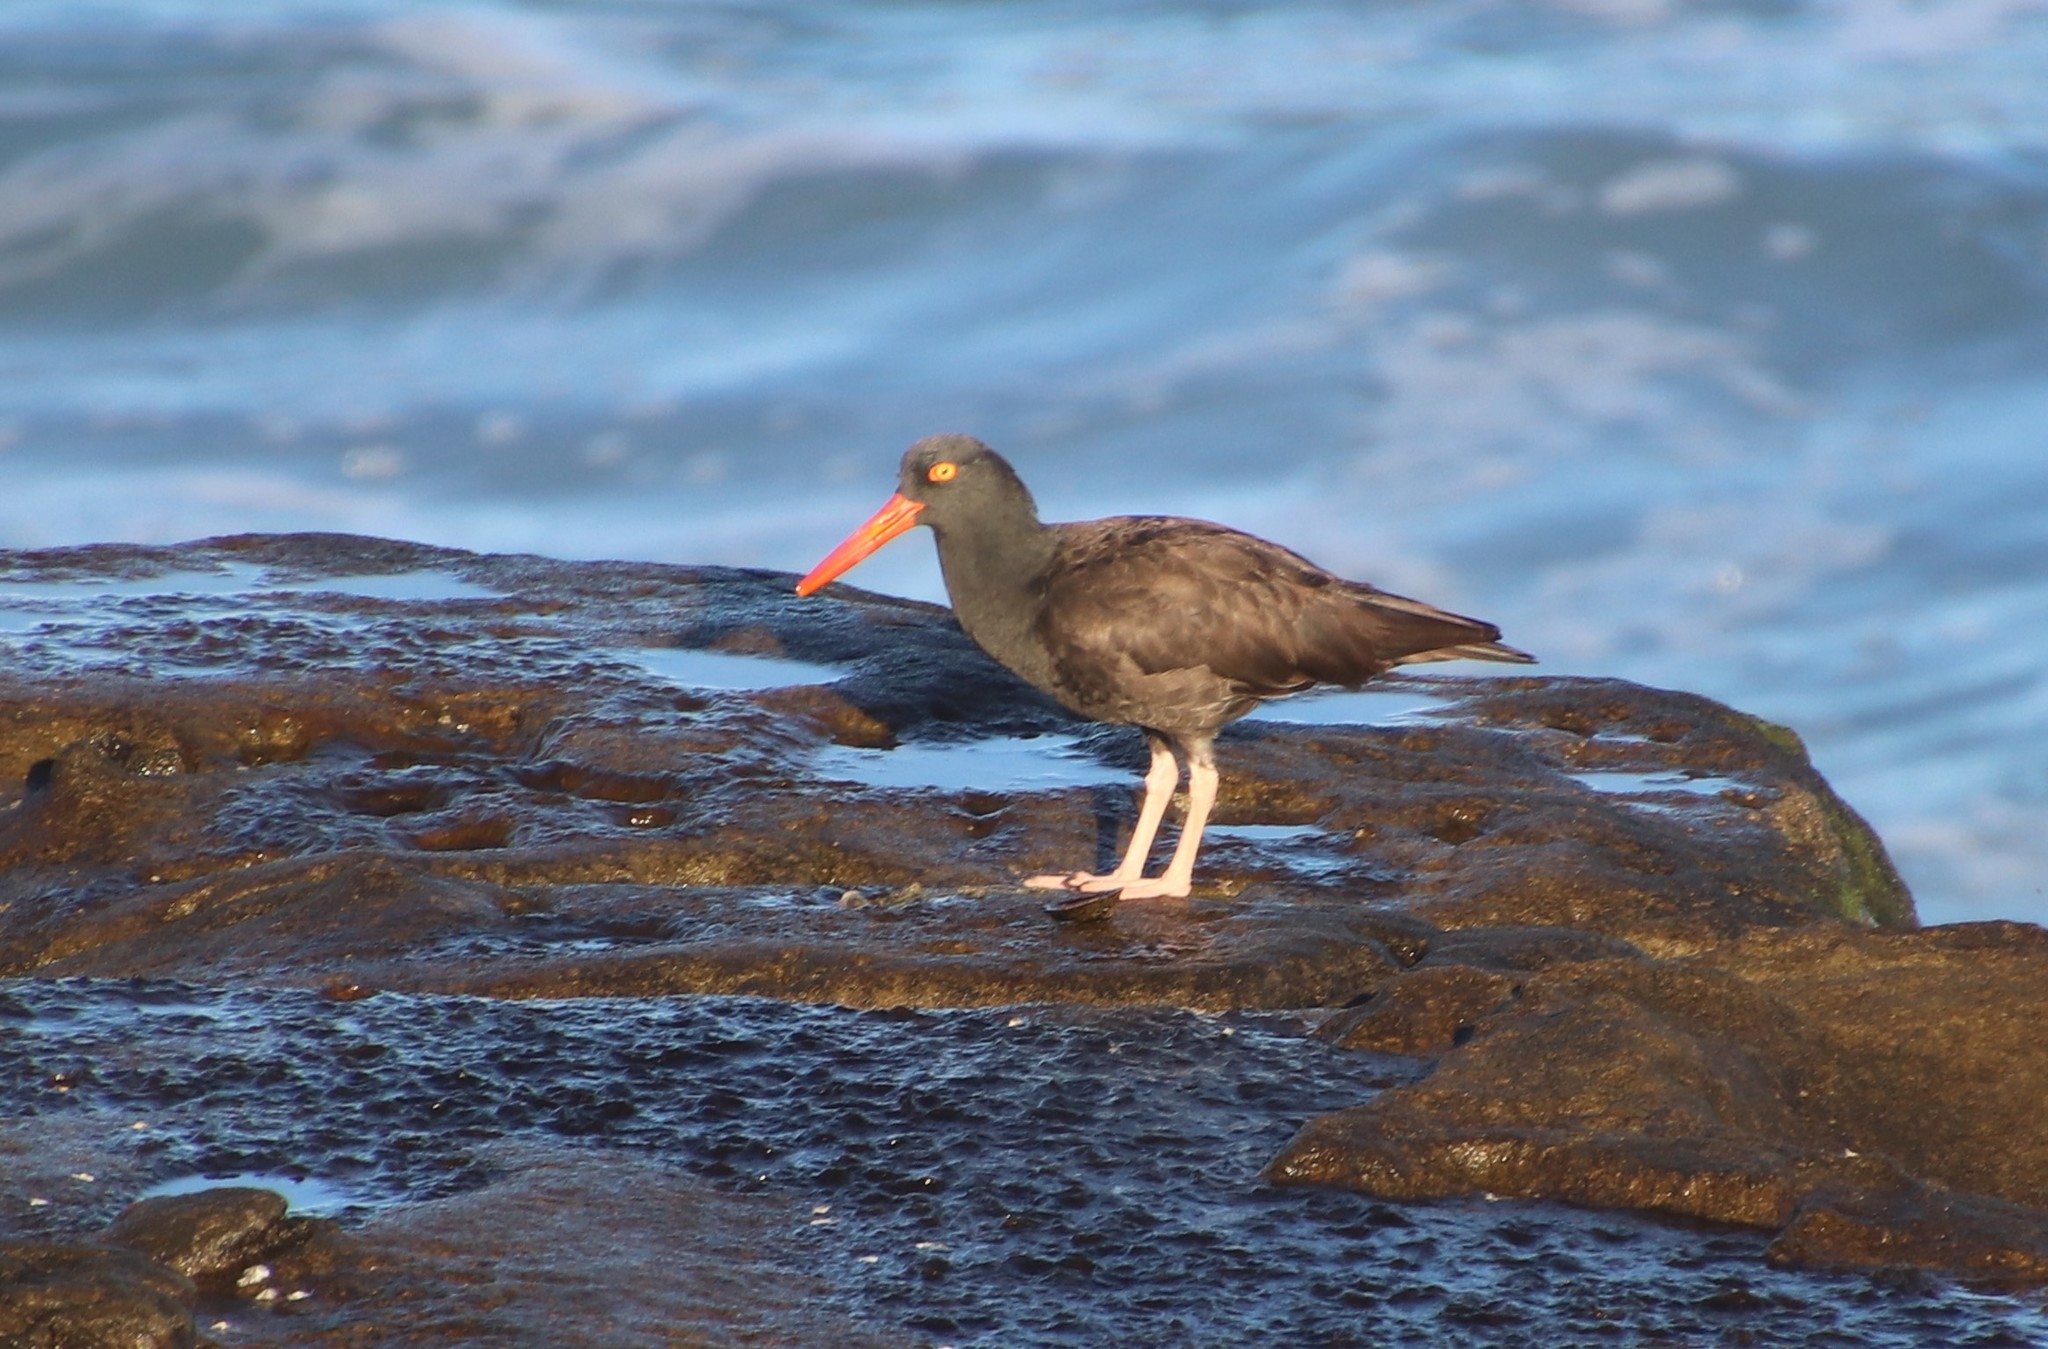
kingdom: Animalia
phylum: Chordata
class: Aves
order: Charadriiformes
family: Haematopodidae
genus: Haematopus
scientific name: Haematopus bachmani
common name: Black oystercatcher
